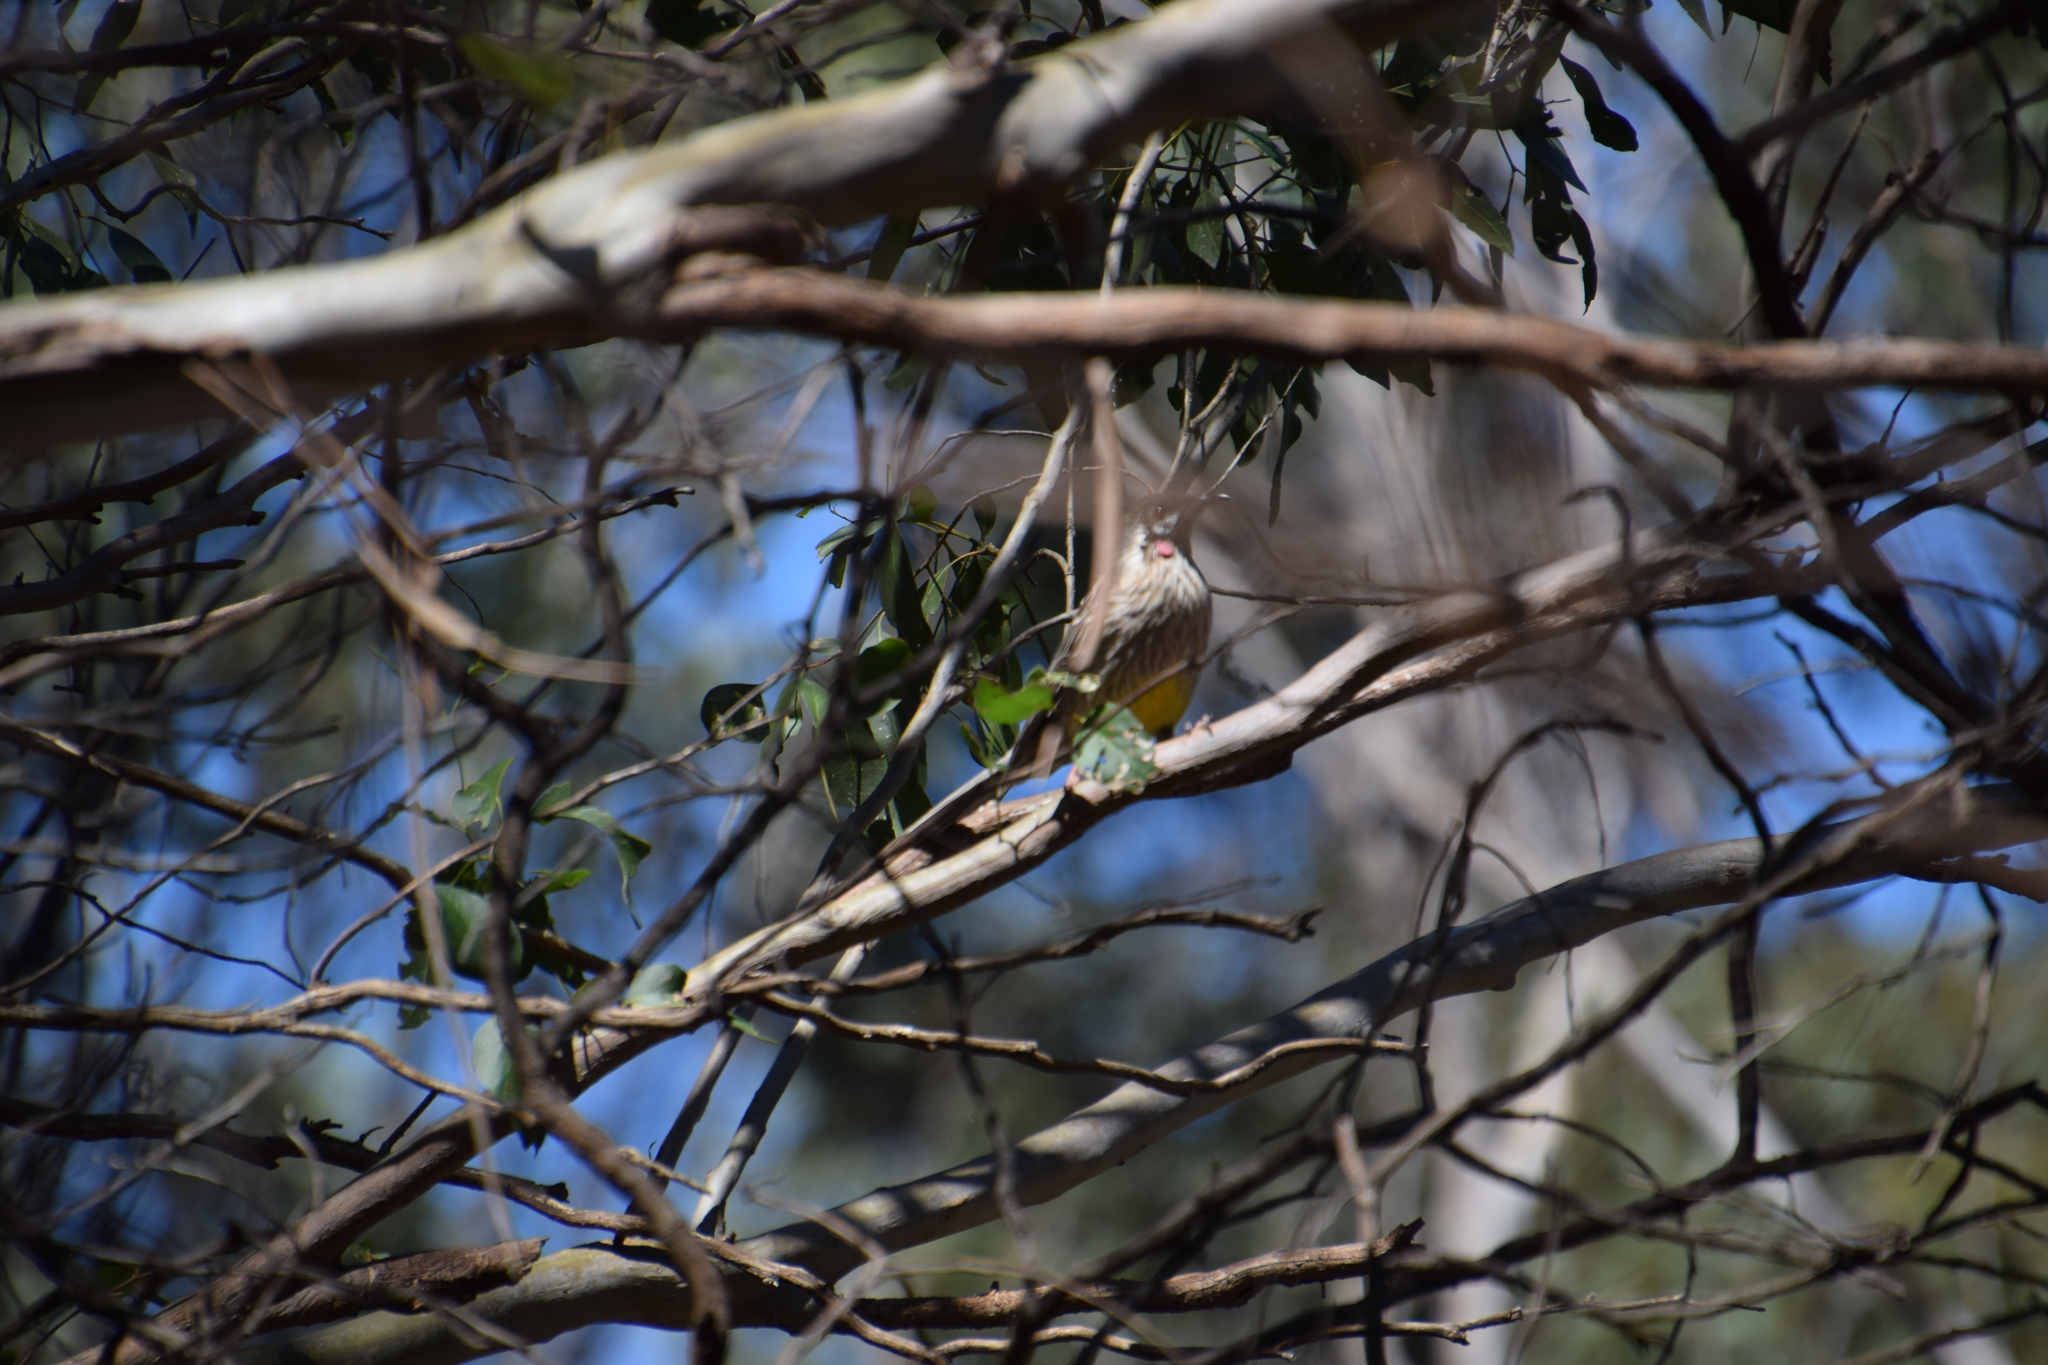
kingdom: Animalia
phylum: Chordata
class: Aves
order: Passeriformes
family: Meliphagidae
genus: Anthochaera
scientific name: Anthochaera carunculata
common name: Red wattlebird
